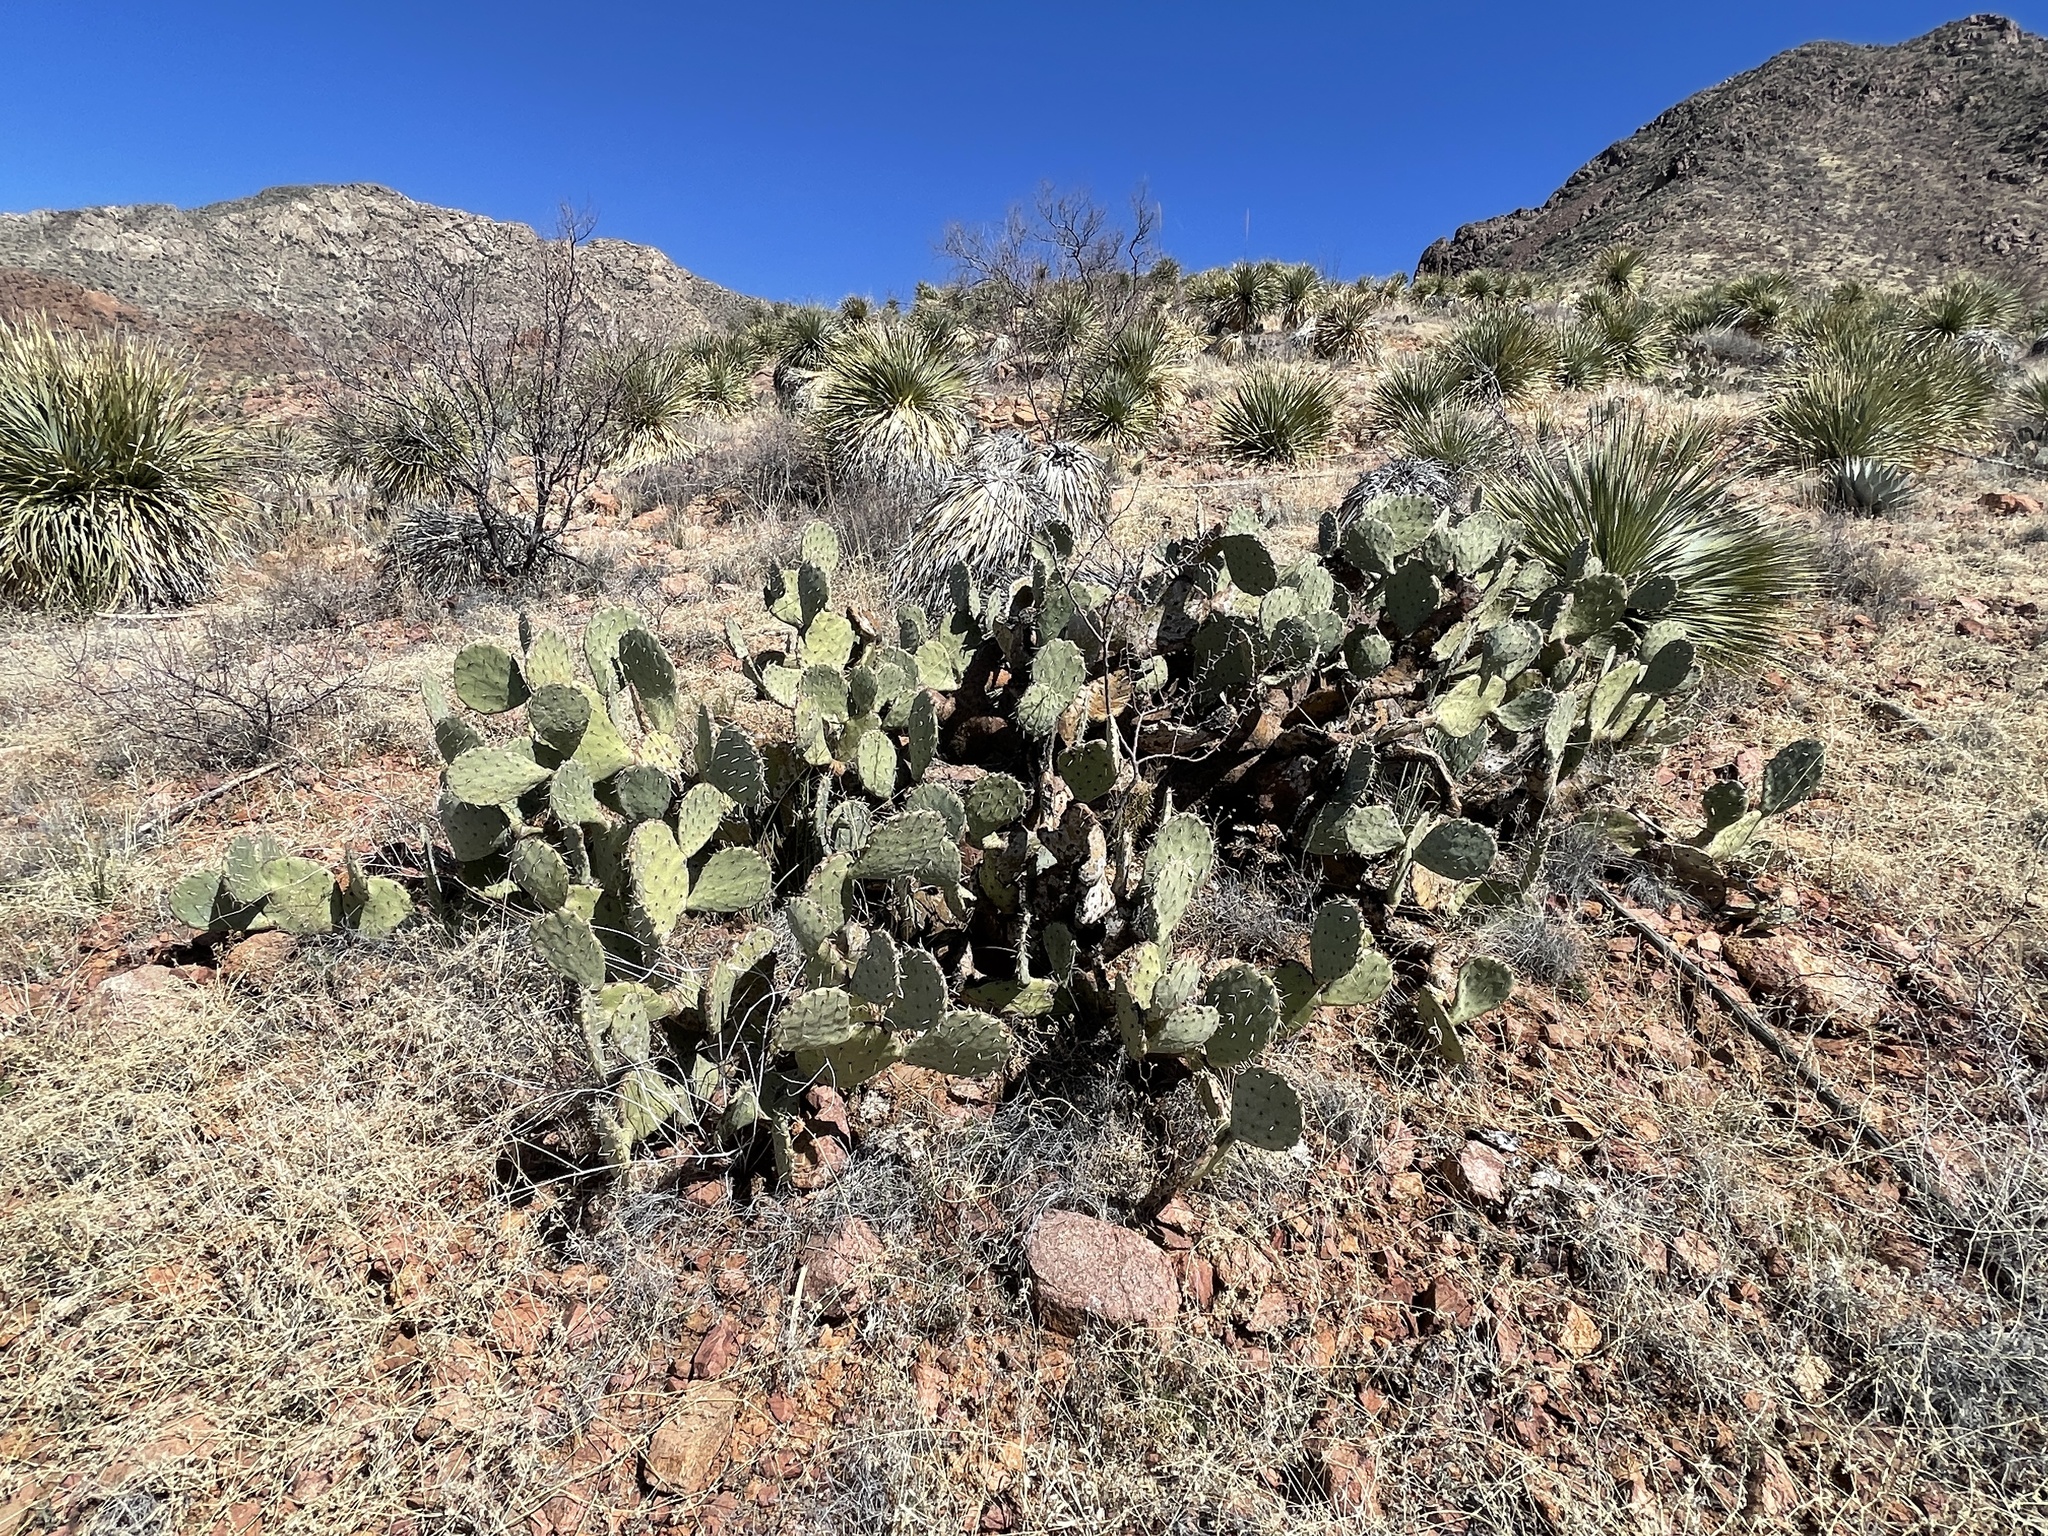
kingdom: Plantae
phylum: Tracheophyta
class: Magnoliopsida
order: Caryophyllales
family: Cactaceae
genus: Opuntia
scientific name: Opuntia engelmannii
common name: Cactus-apple
